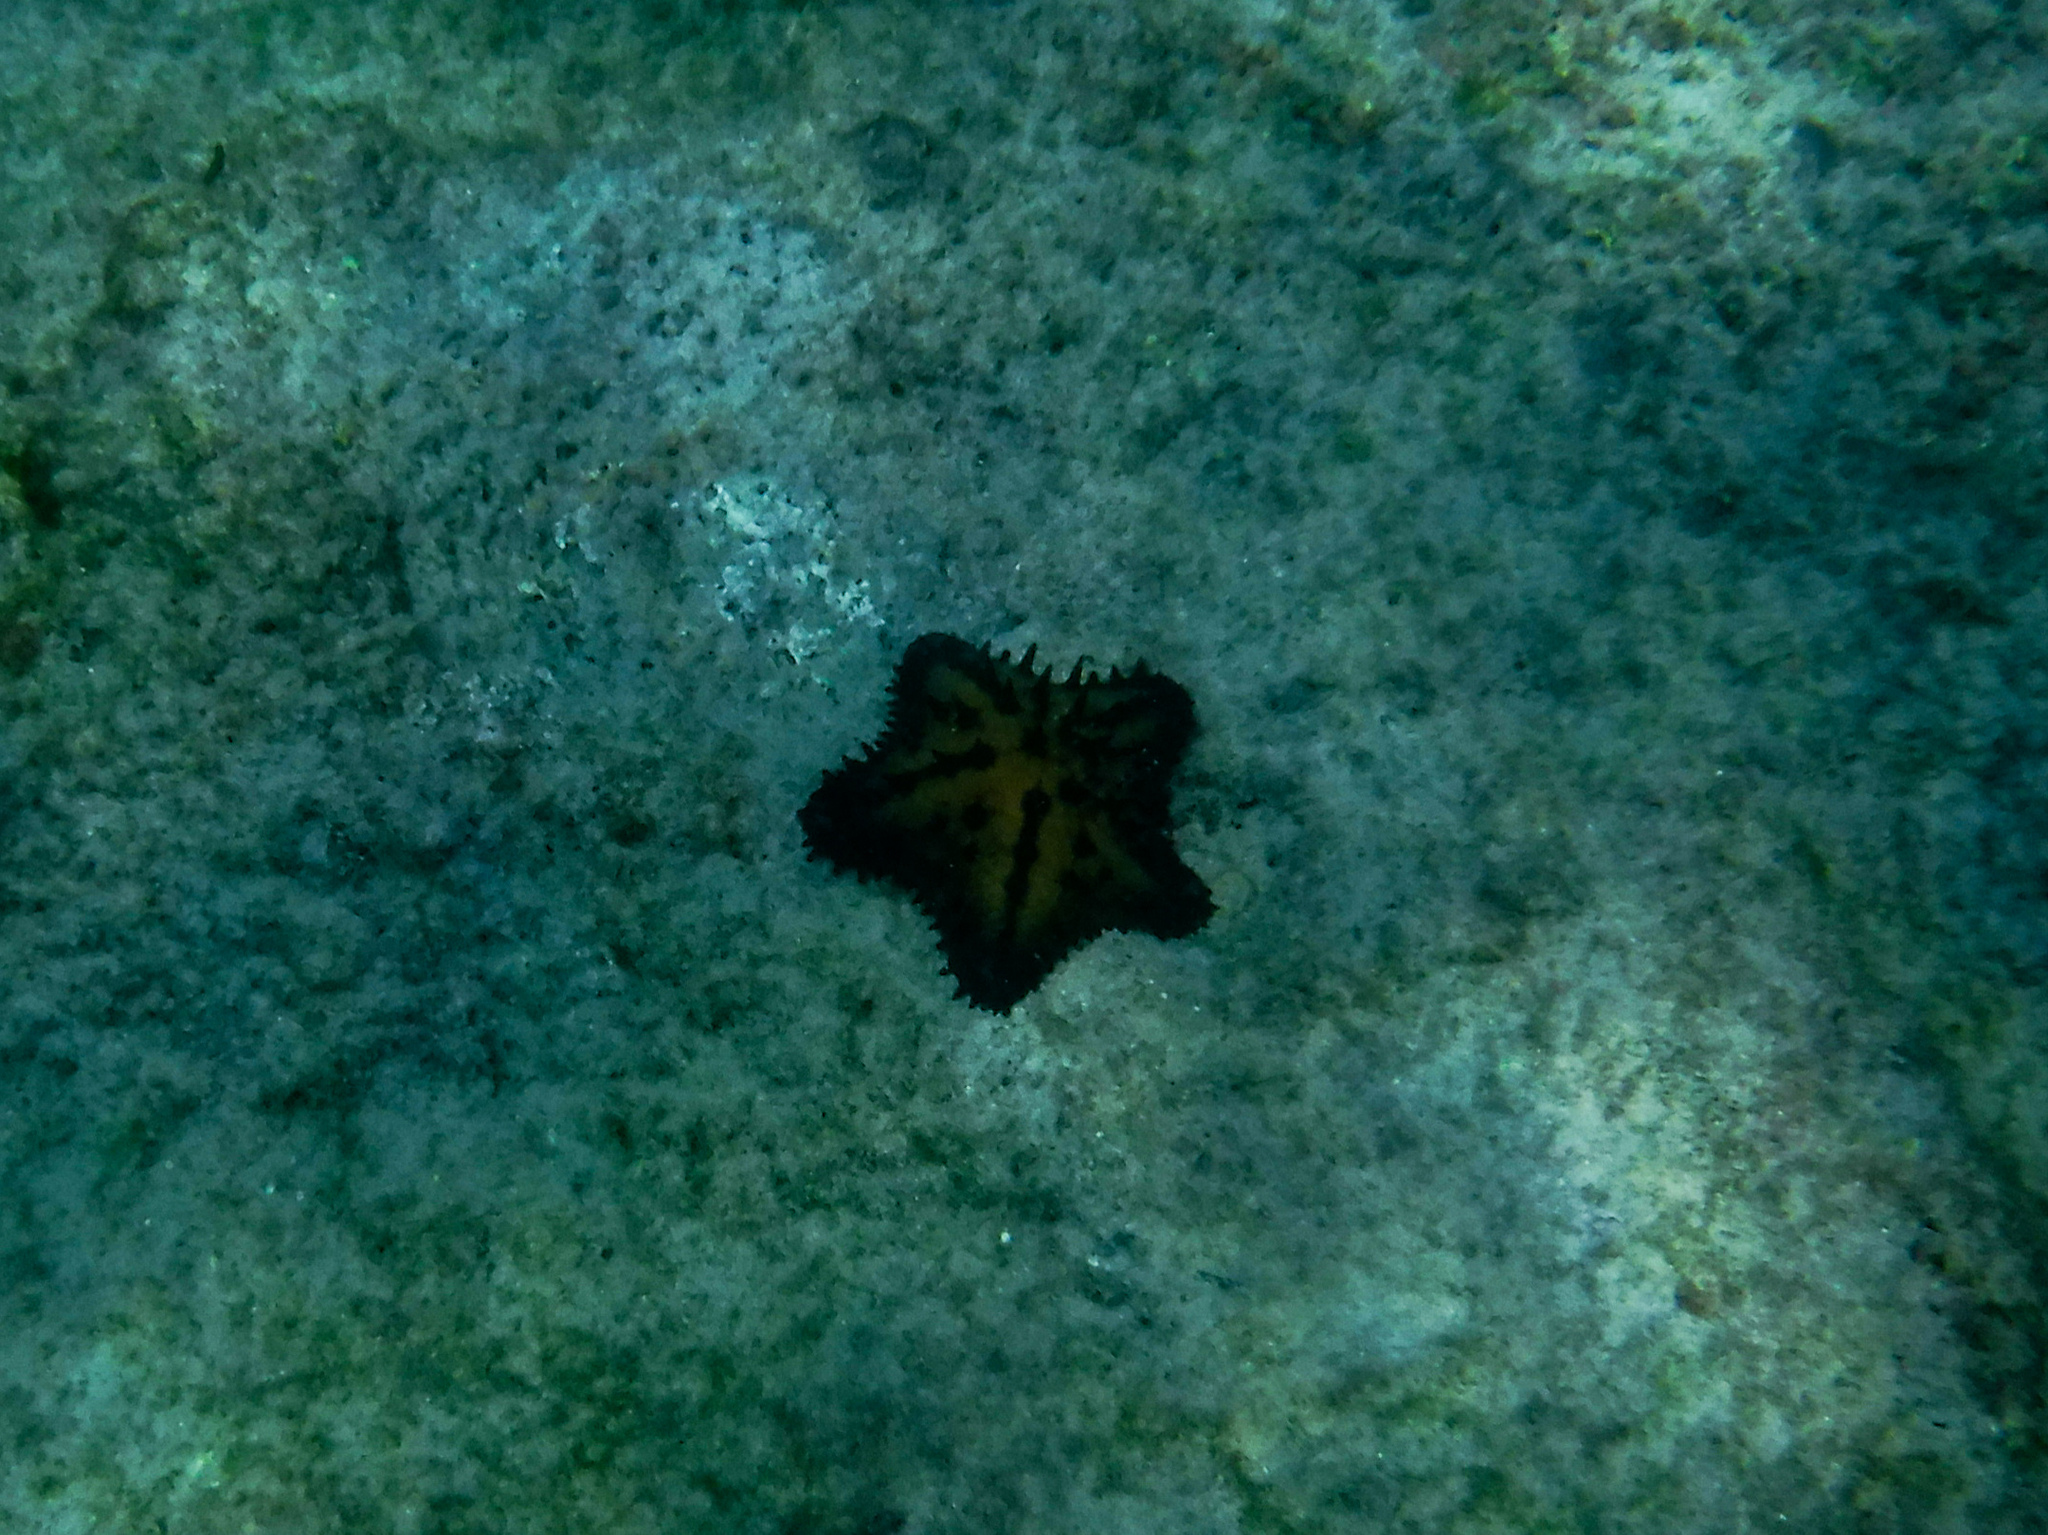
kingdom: Animalia
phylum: Echinodermata
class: Asteroidea
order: Valvatida
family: Oreasteridae
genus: Nidorellia
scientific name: Nidorellia armata
